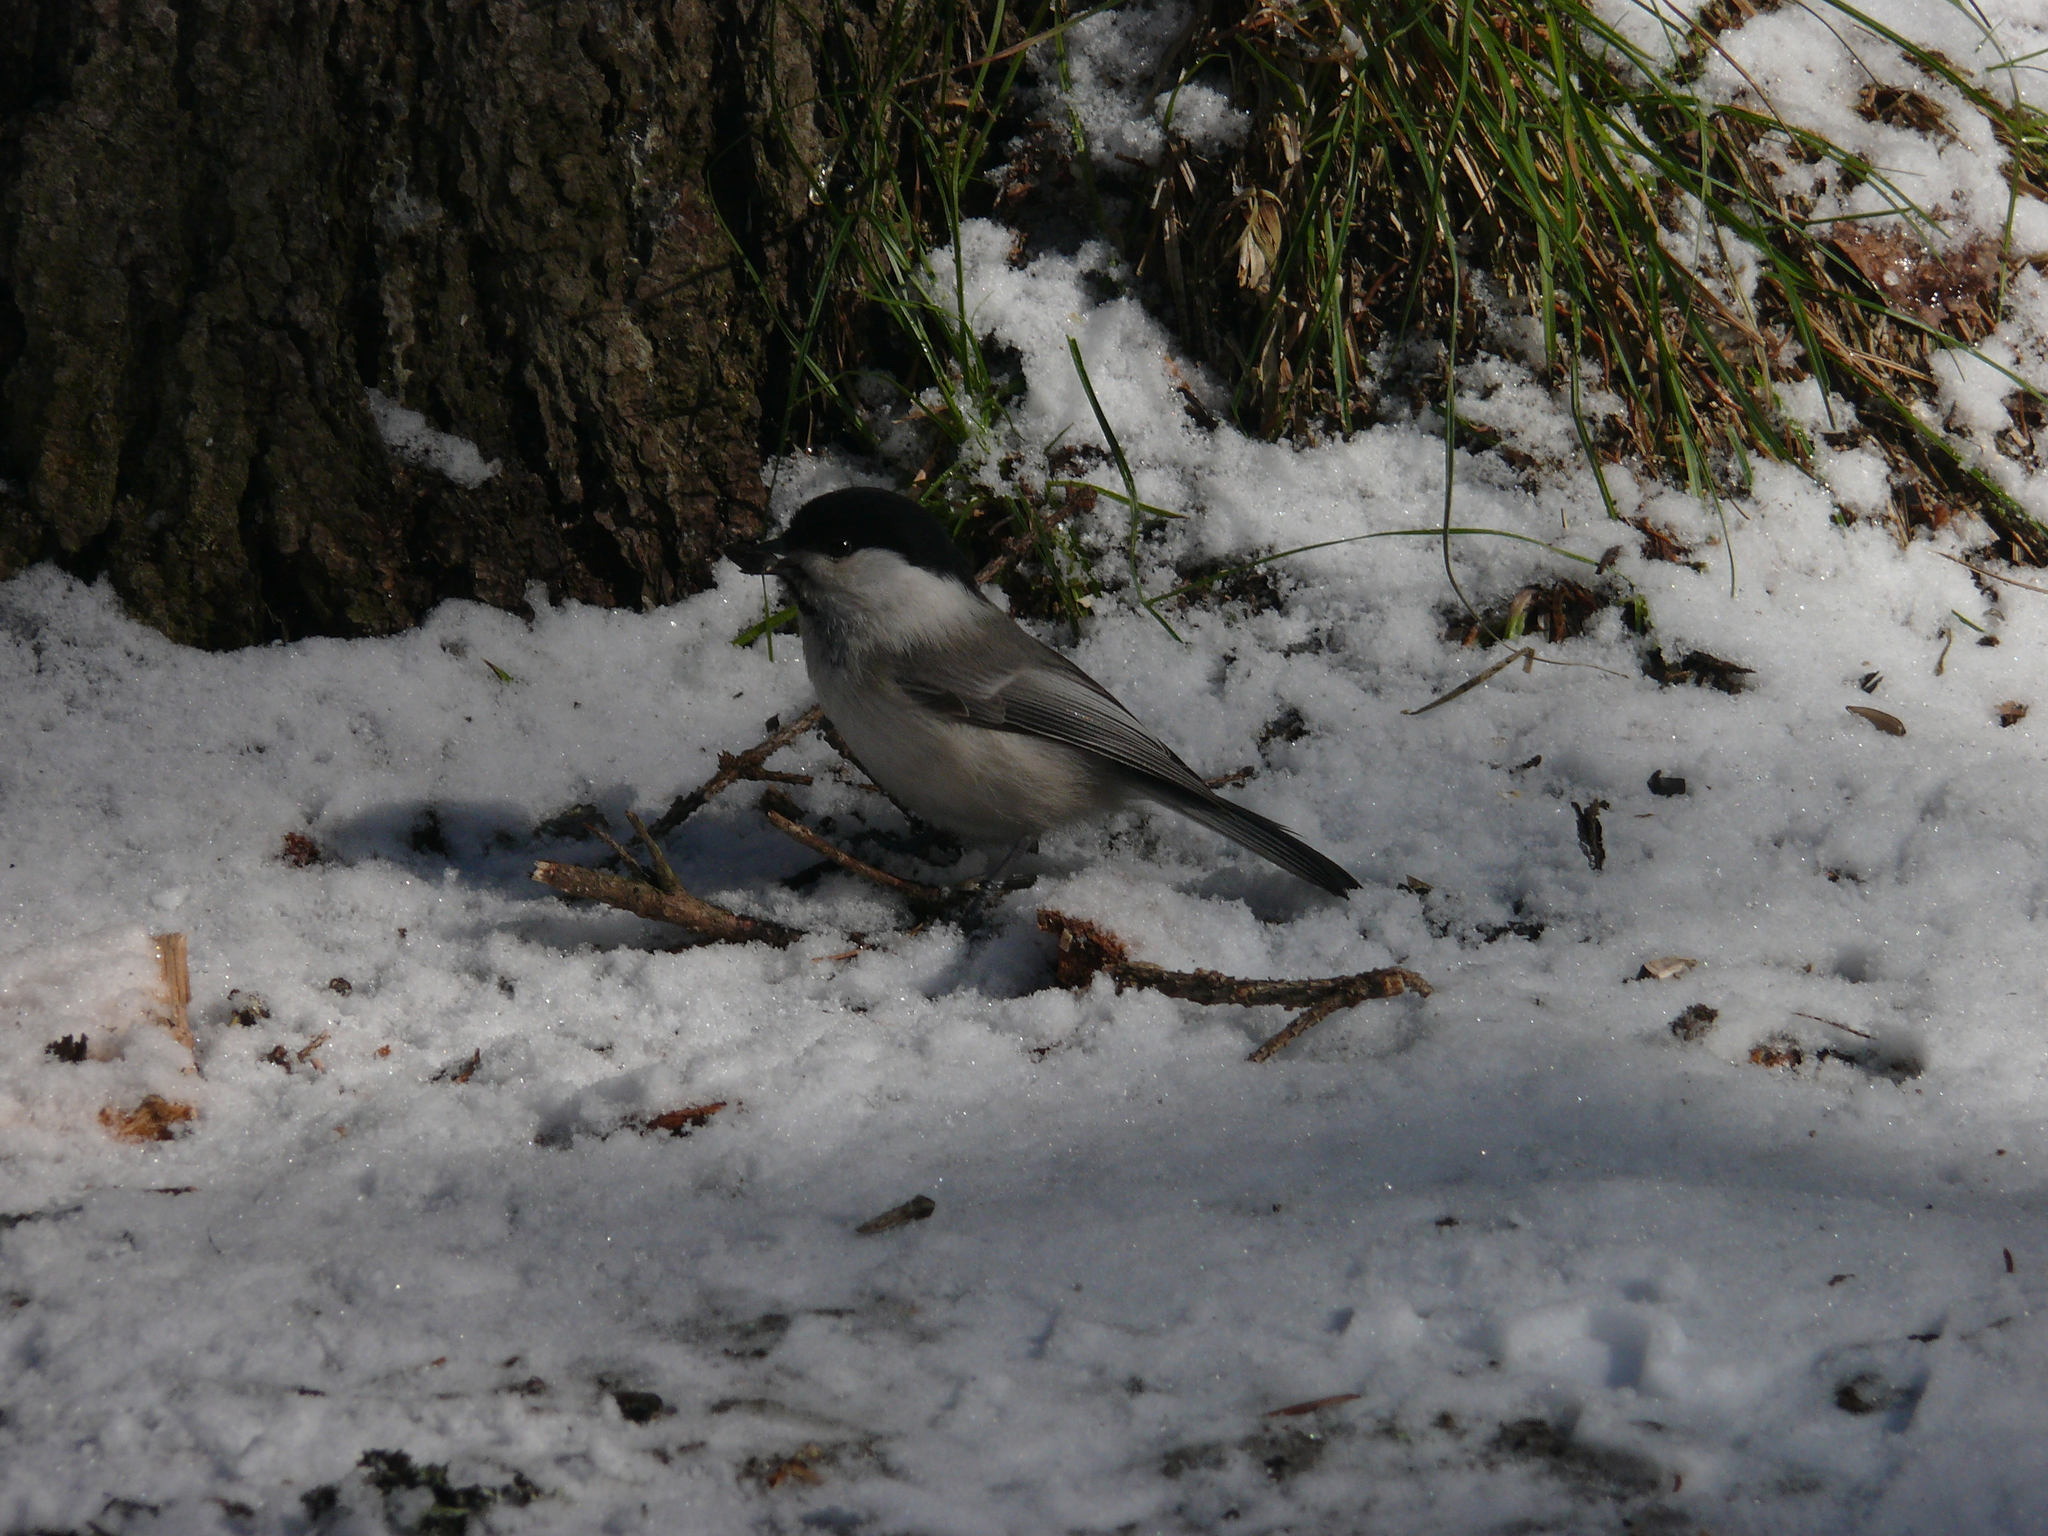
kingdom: Animalia
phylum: Chordata
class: Aves
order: Passeriformes
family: Paridae
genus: Poecile
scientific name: Poecile montanus
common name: Willow tit
